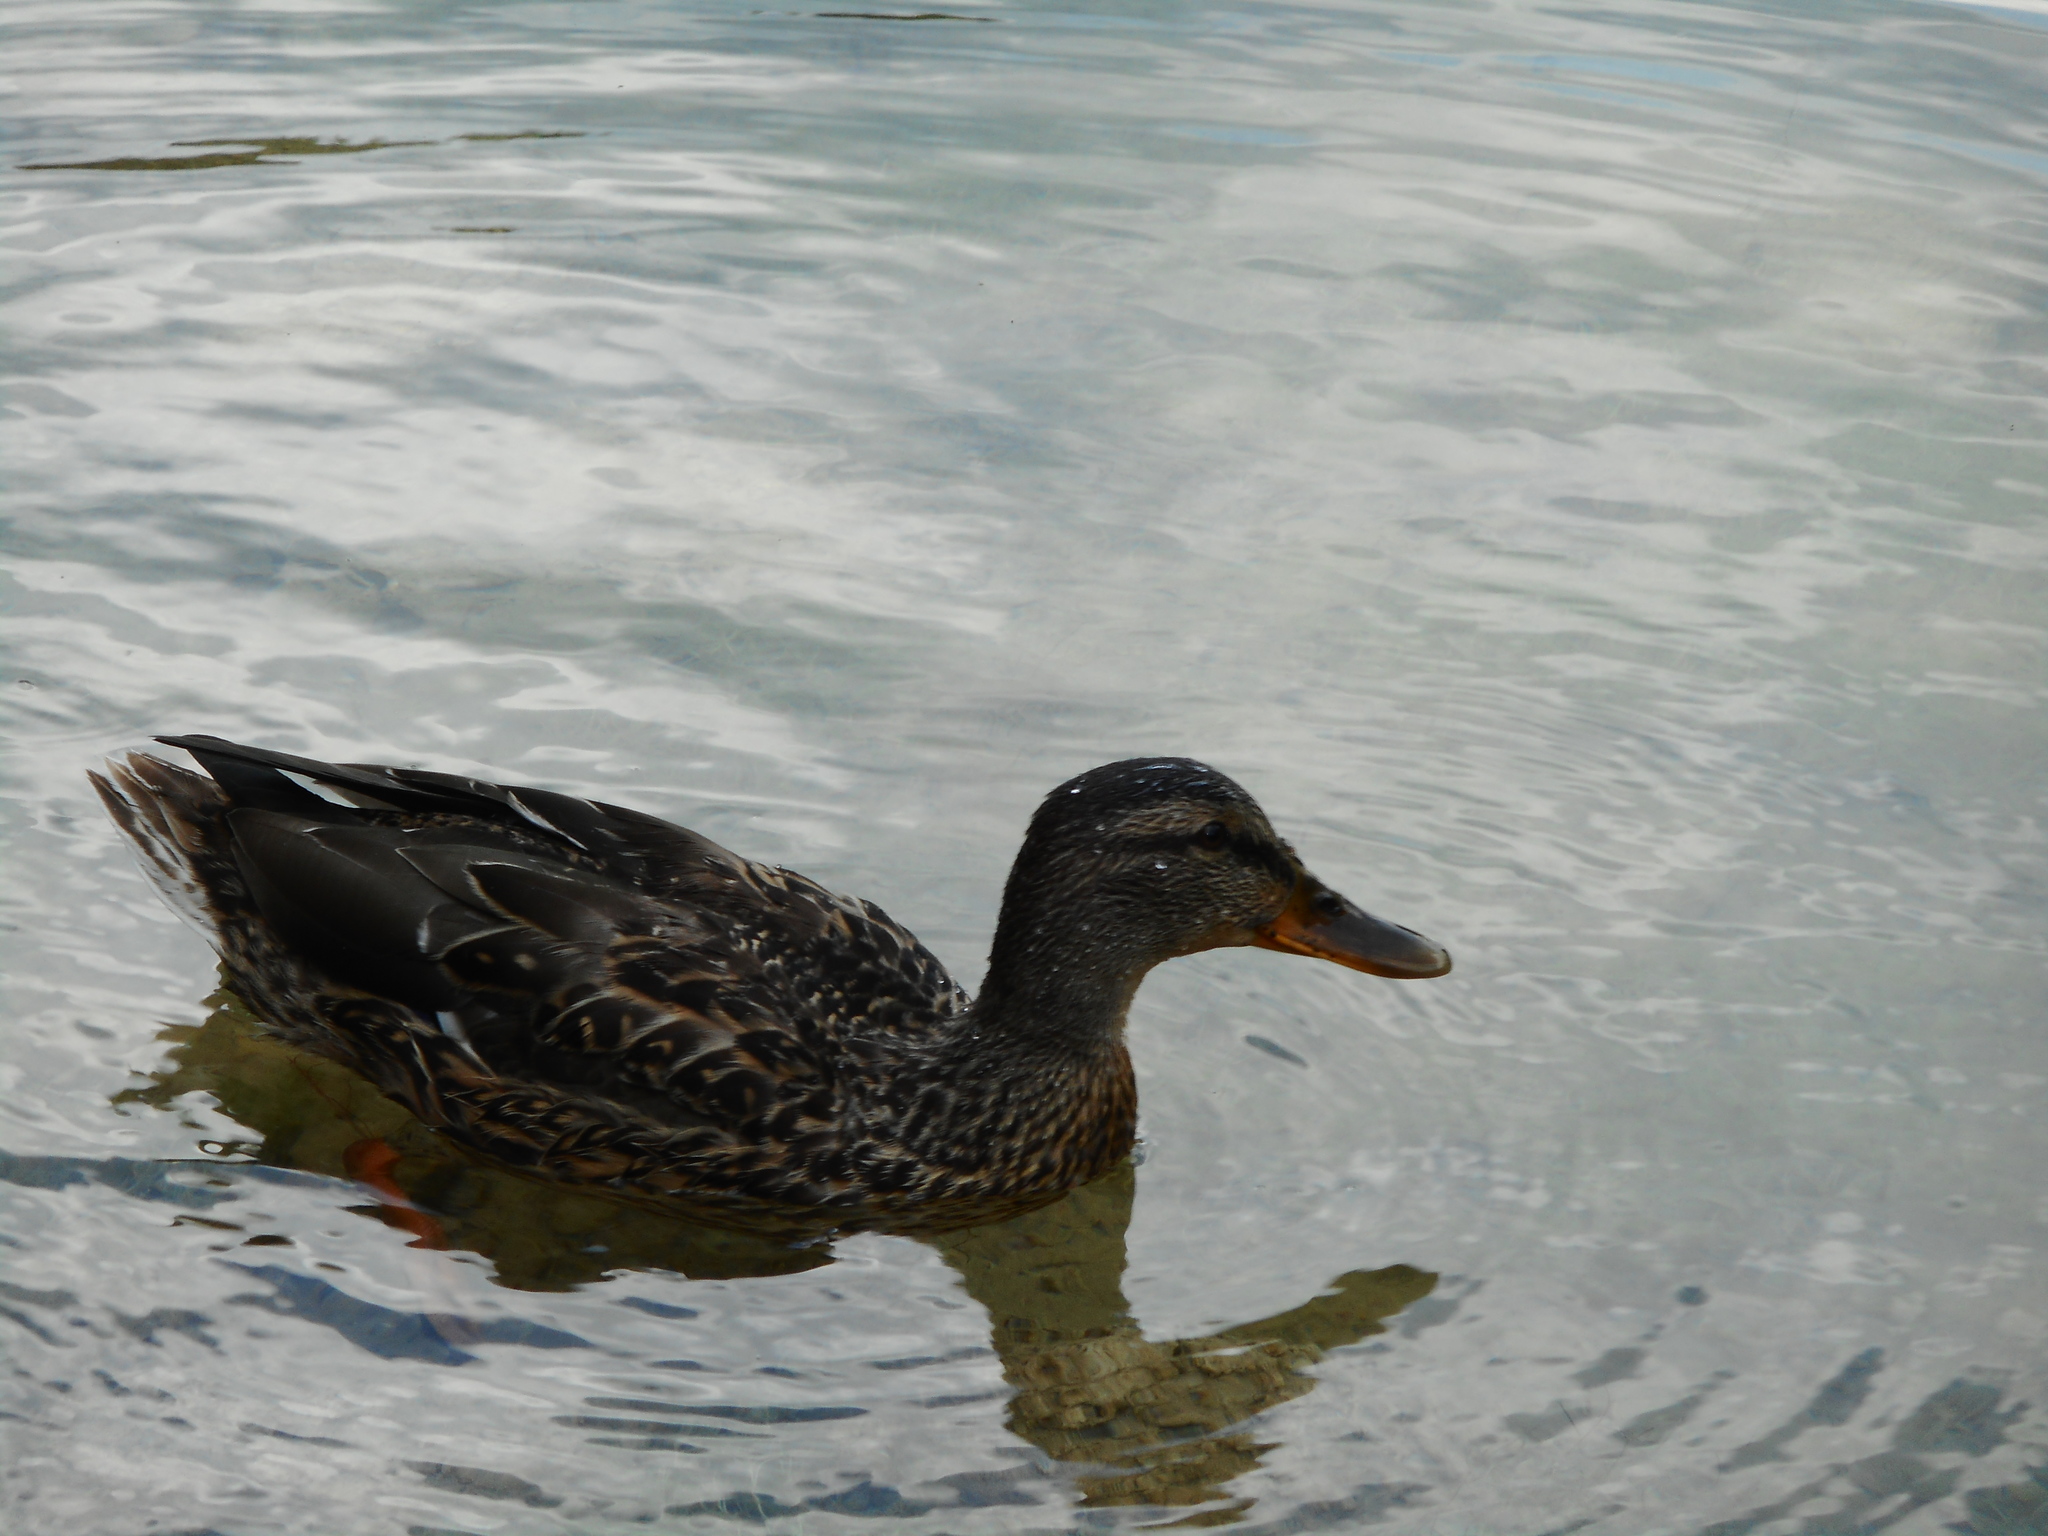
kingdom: Animalia
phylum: Chordata
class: Aves
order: Anseriformes
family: Anatidae
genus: Anas
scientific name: Anas platyrhynchos
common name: Mallard
